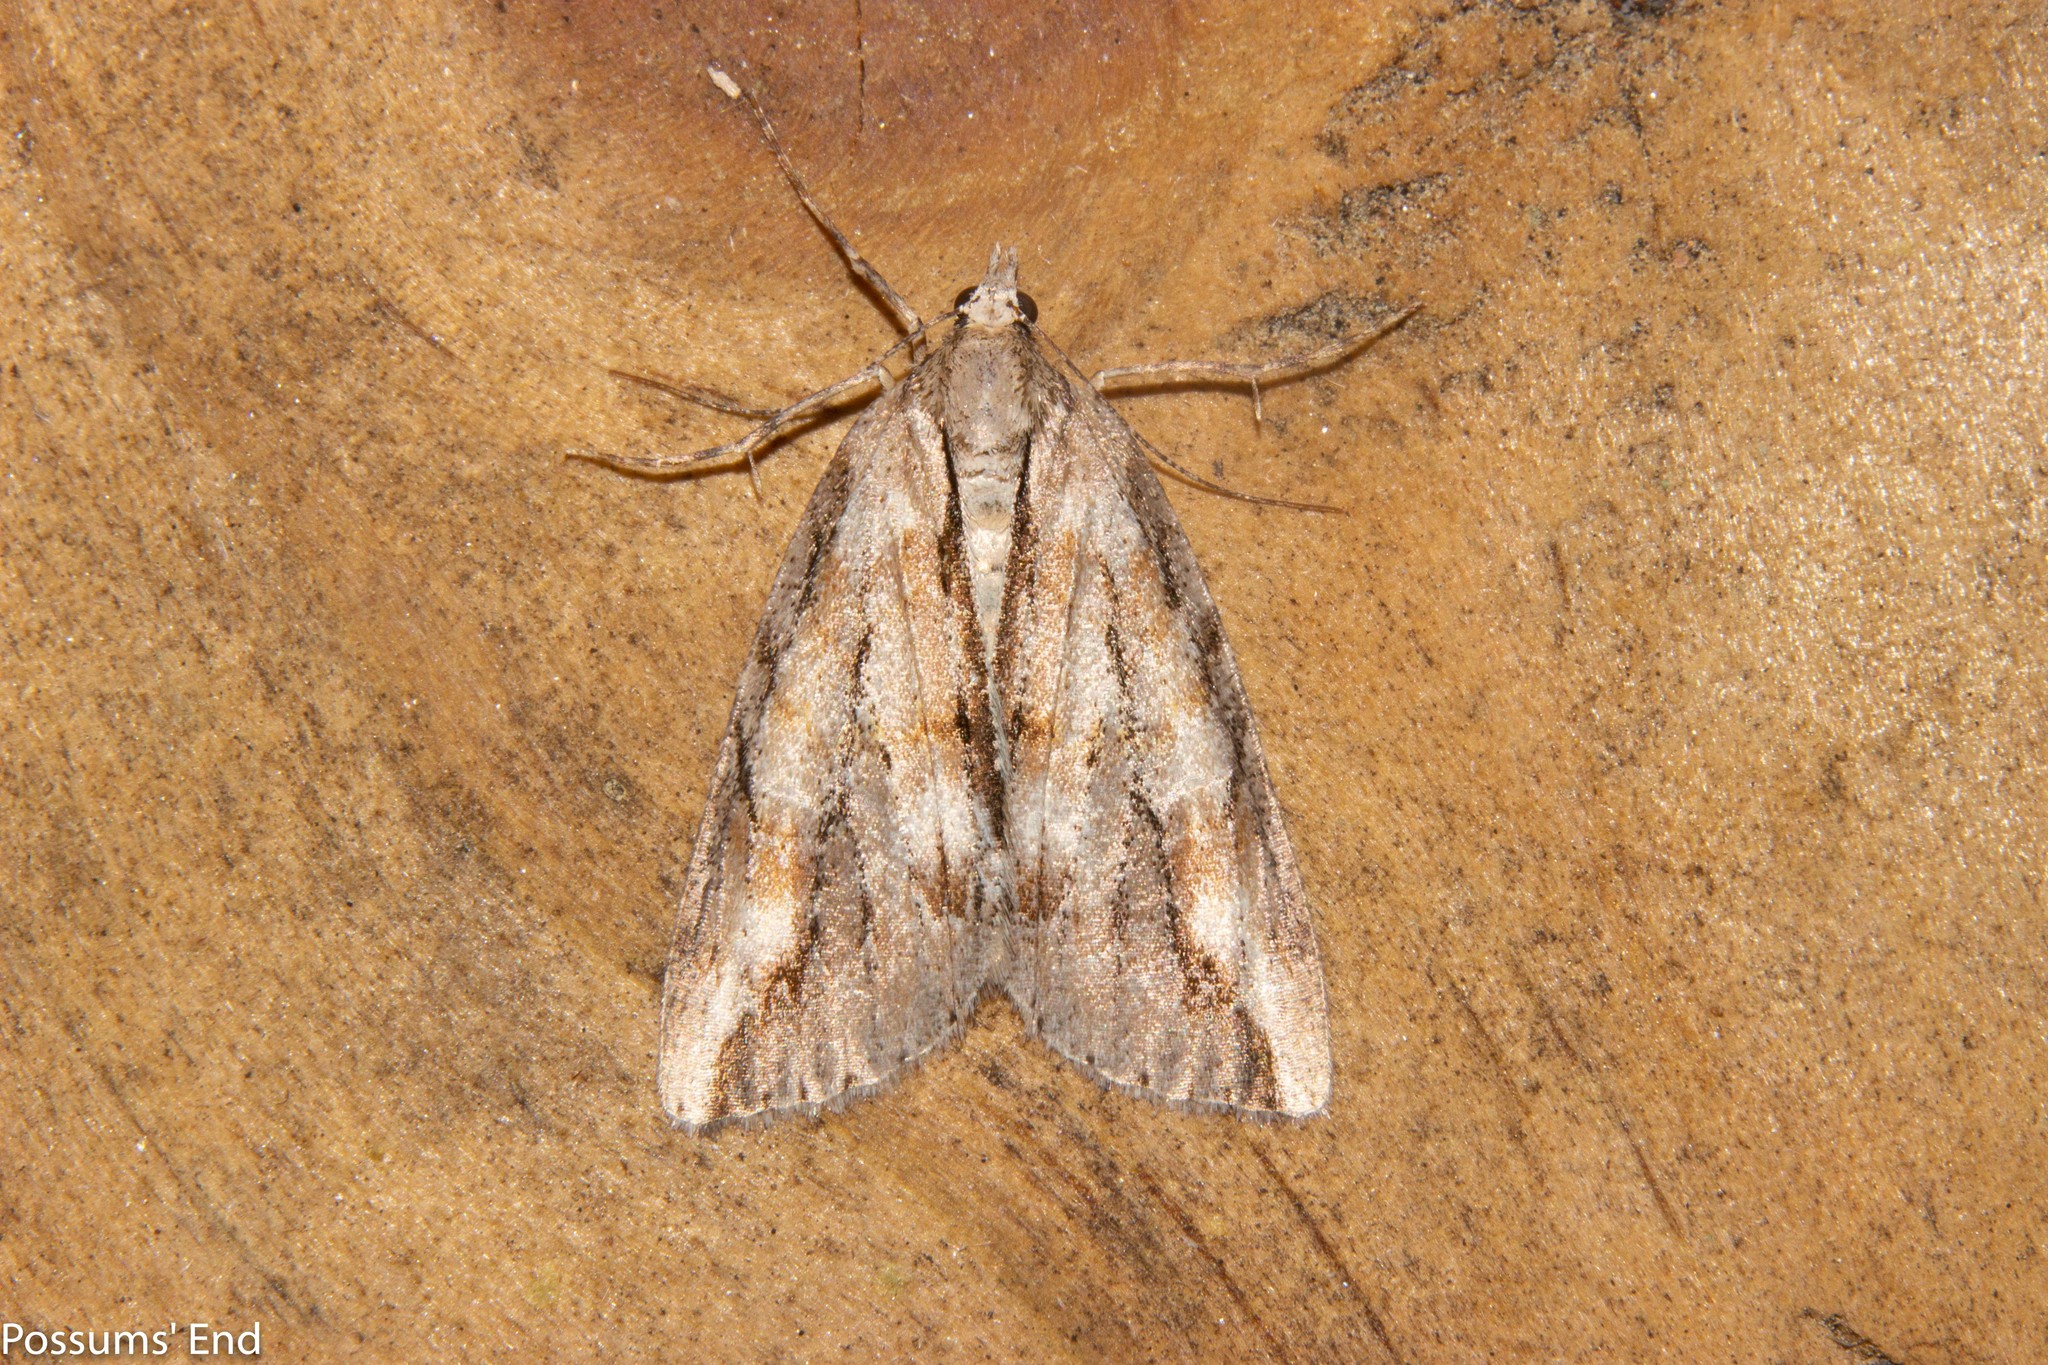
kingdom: Animalia
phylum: Arthropoda
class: Insecta
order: Lepidoptera
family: Geometridae
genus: Pseudocoremia
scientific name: Pseudocoremia lupinata
